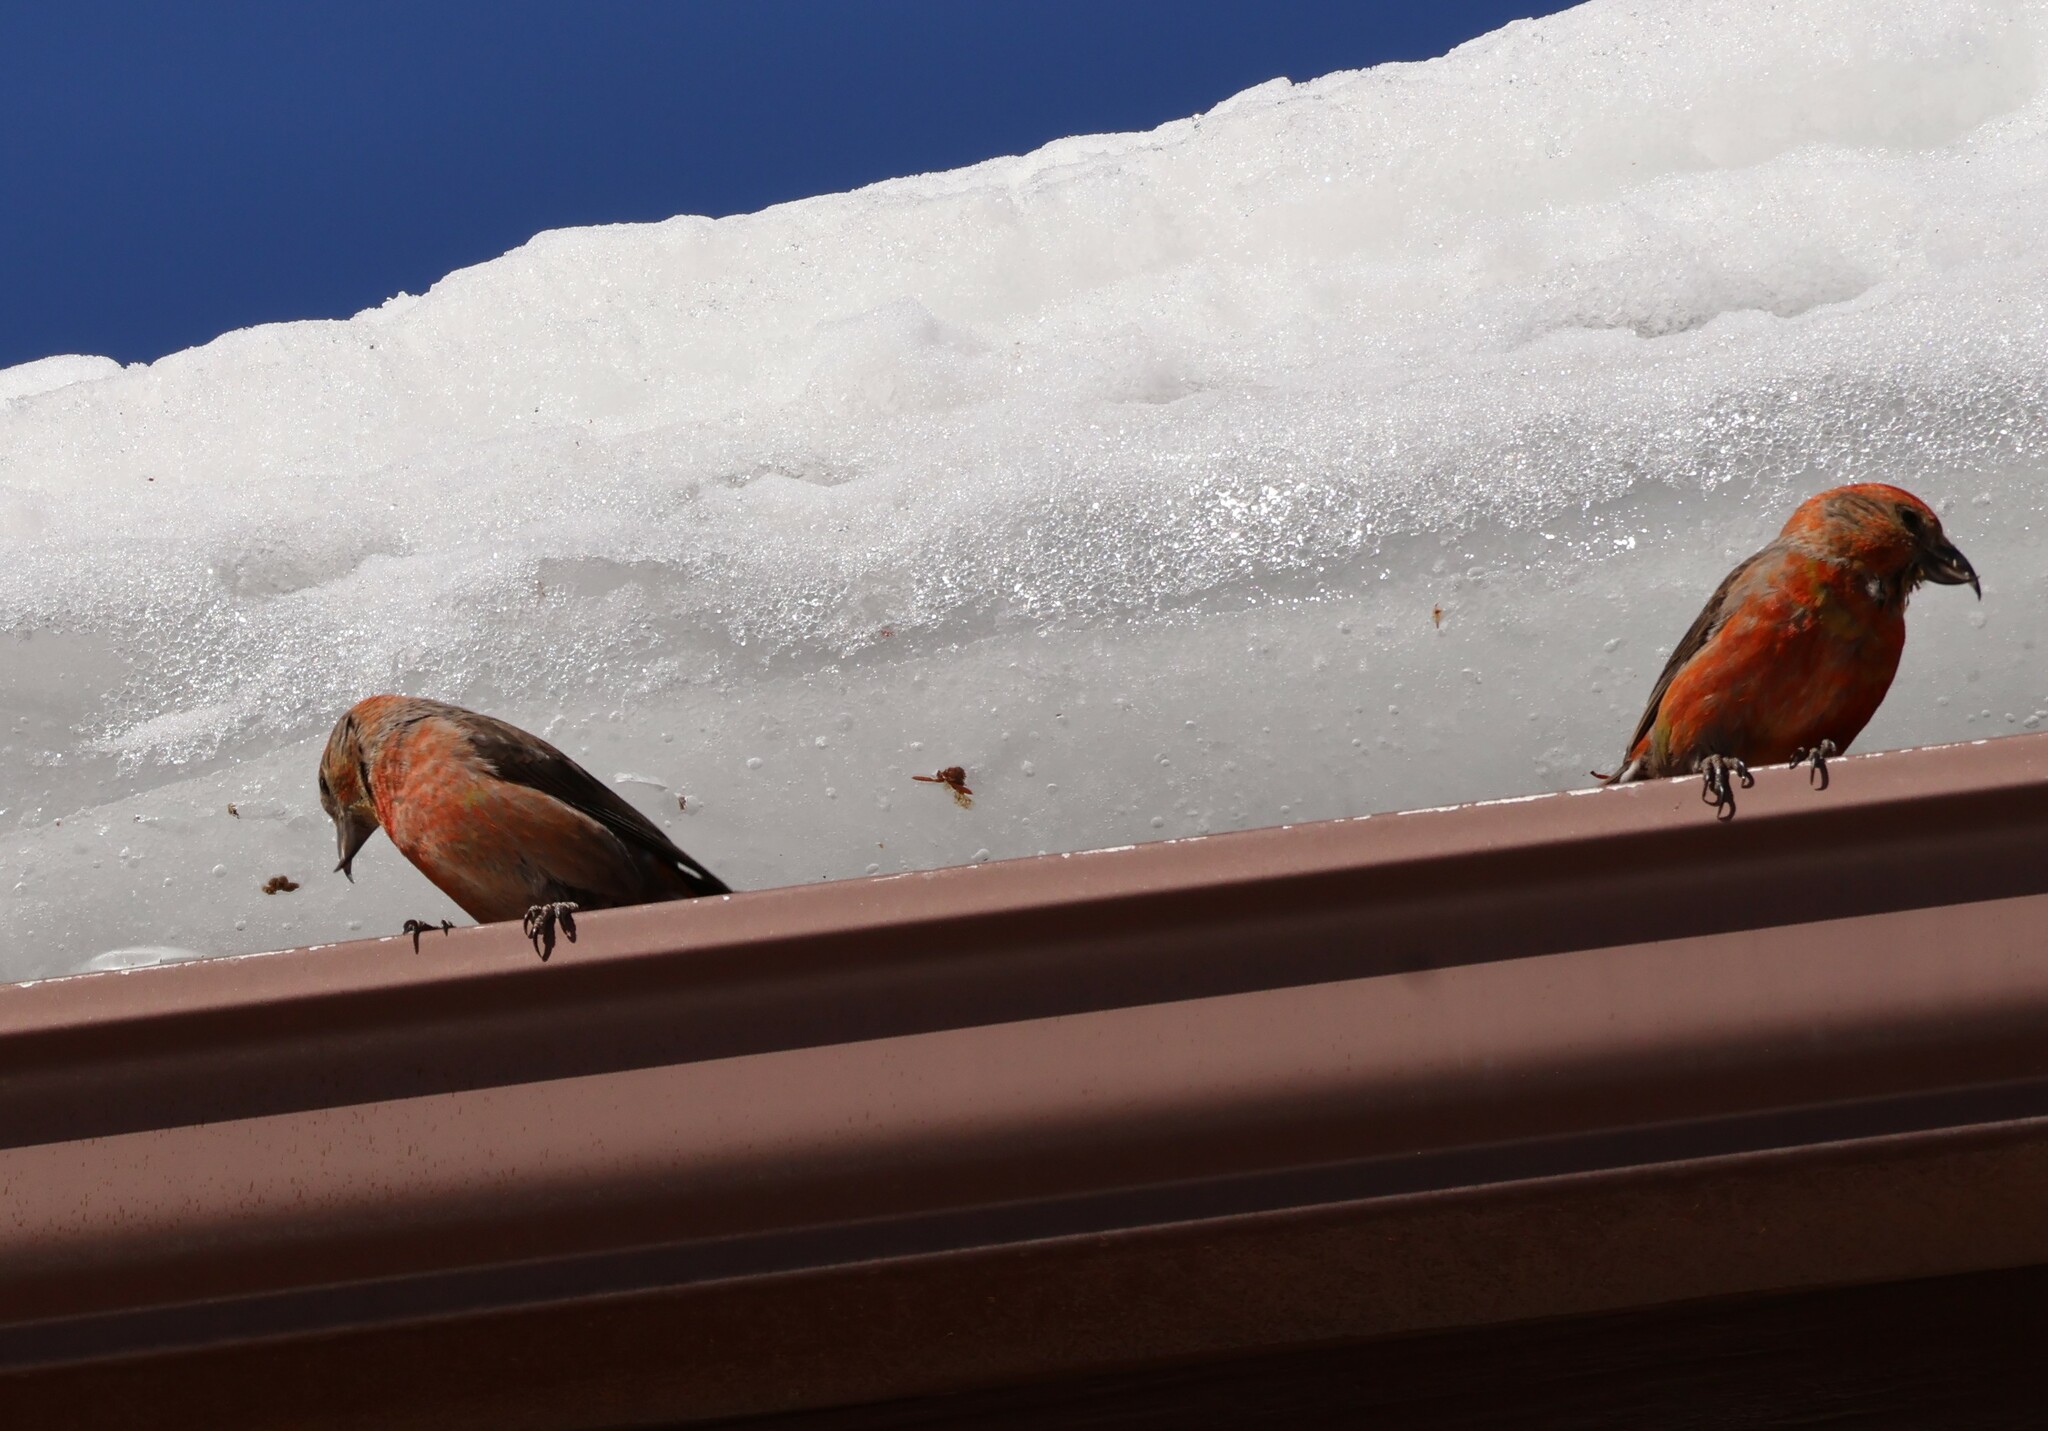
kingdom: Animalia
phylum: Chordata
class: Aves
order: Passeriformes
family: Fringillidae
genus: Loxia
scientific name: Loxia curvirostra
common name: Red crossbill
